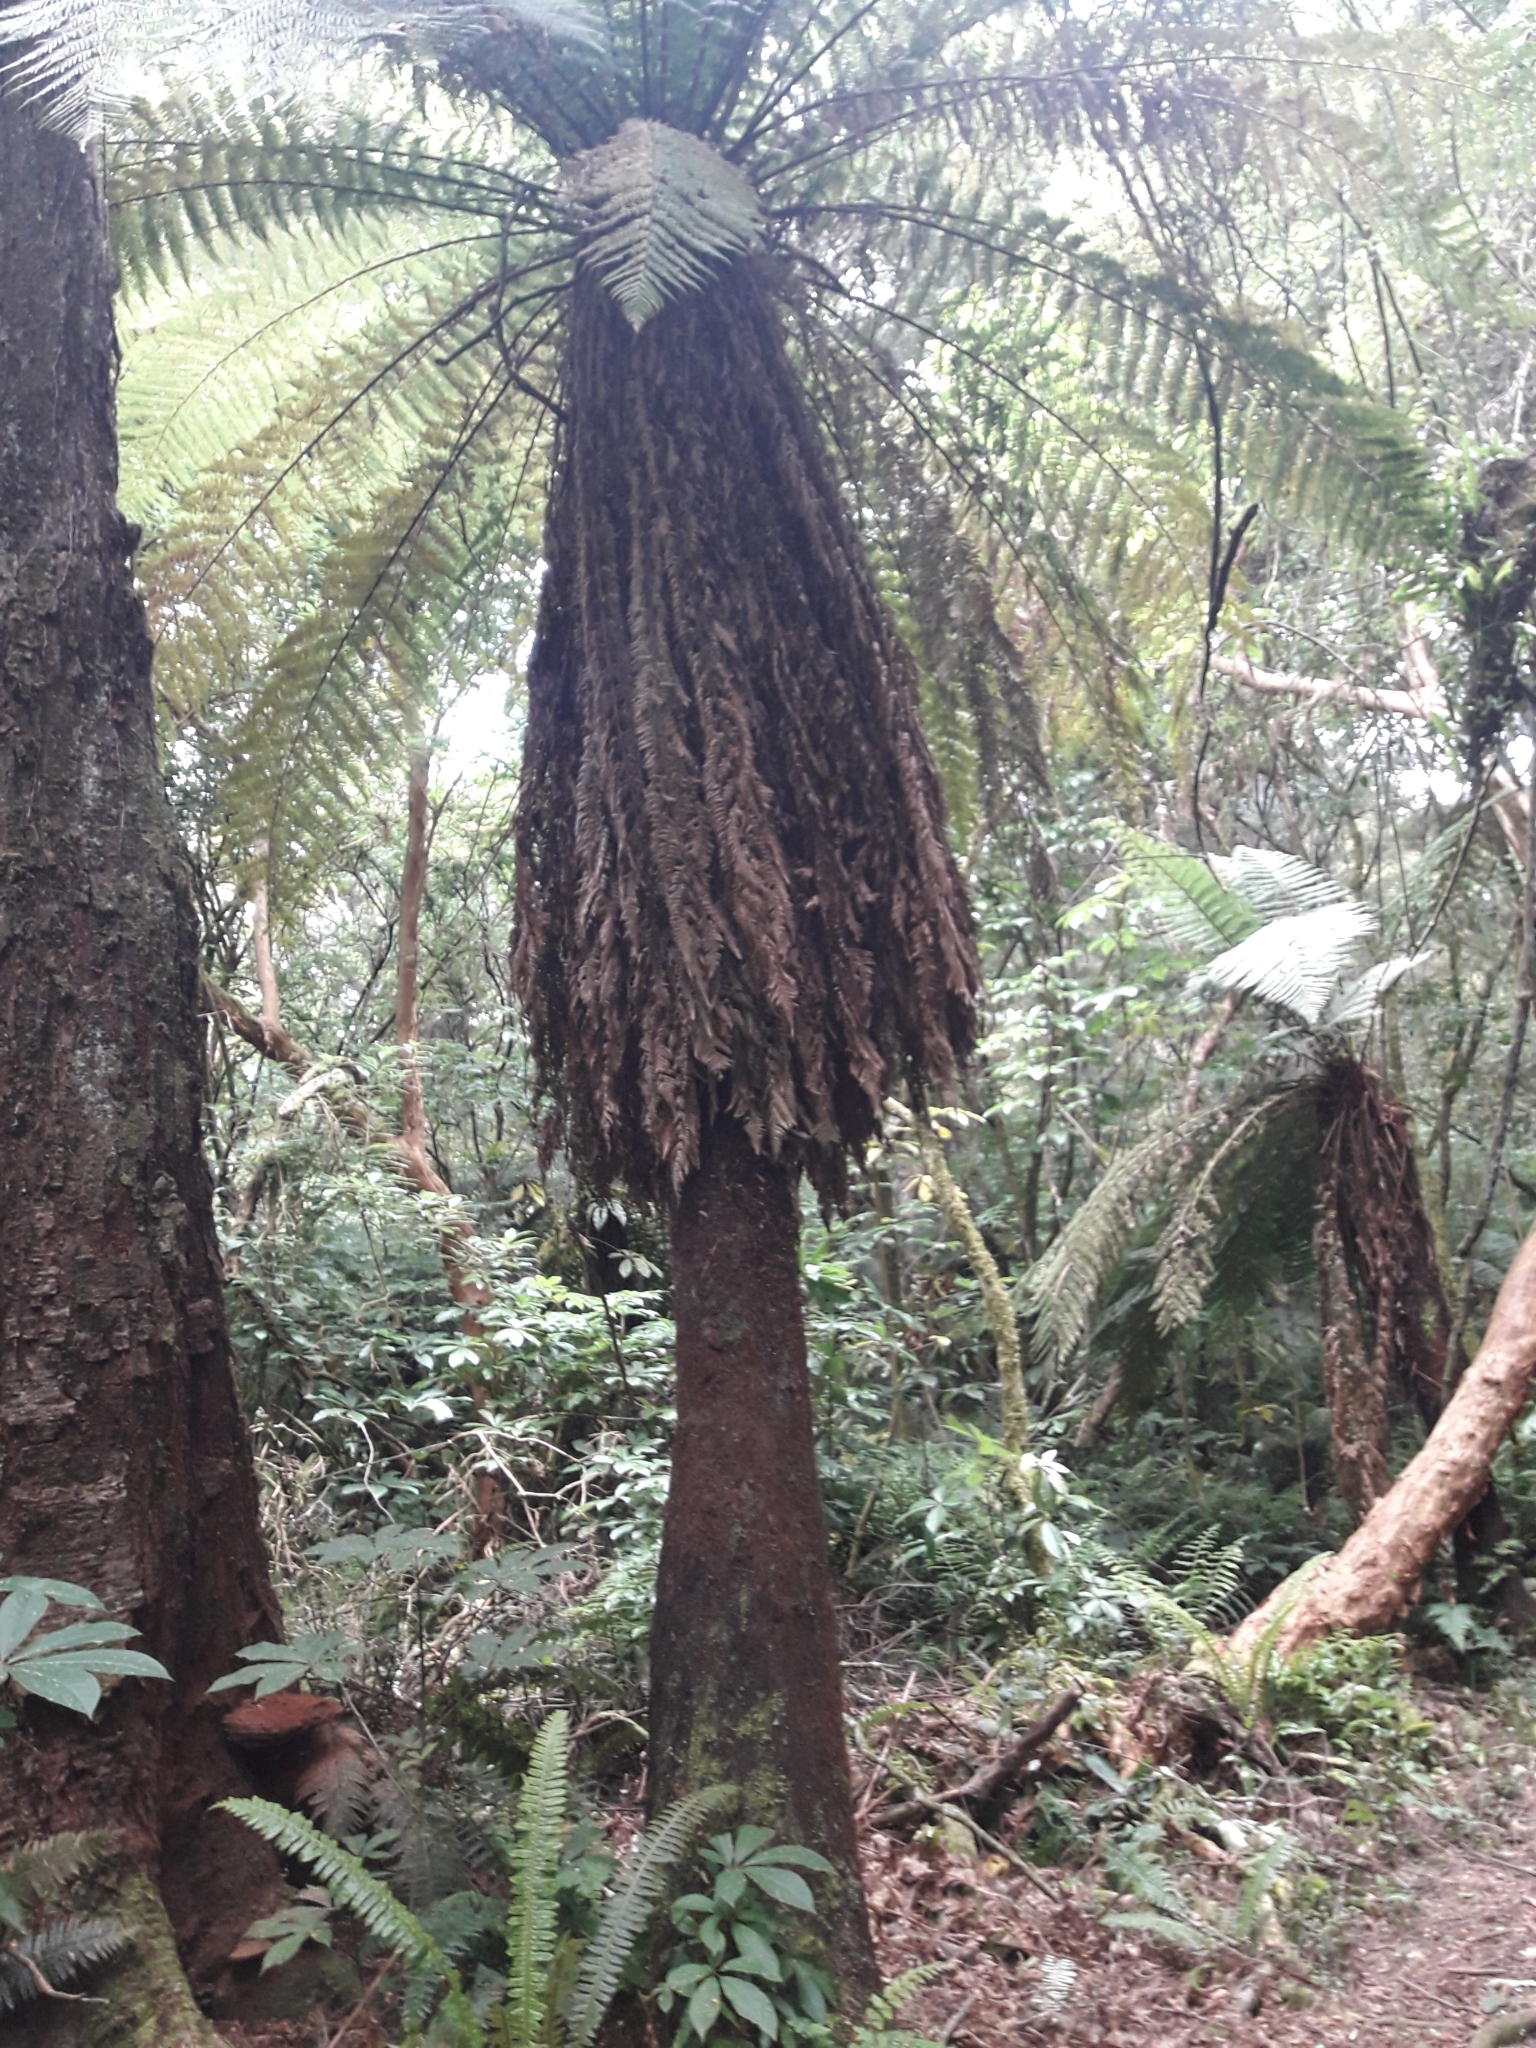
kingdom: Plantae
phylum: Tracheophyta
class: Polypodiopsida
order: Cyatheales
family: Dicksoniaceae
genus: Dicksonia
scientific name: Dicksonia fibrosa
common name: Golden tree fern
